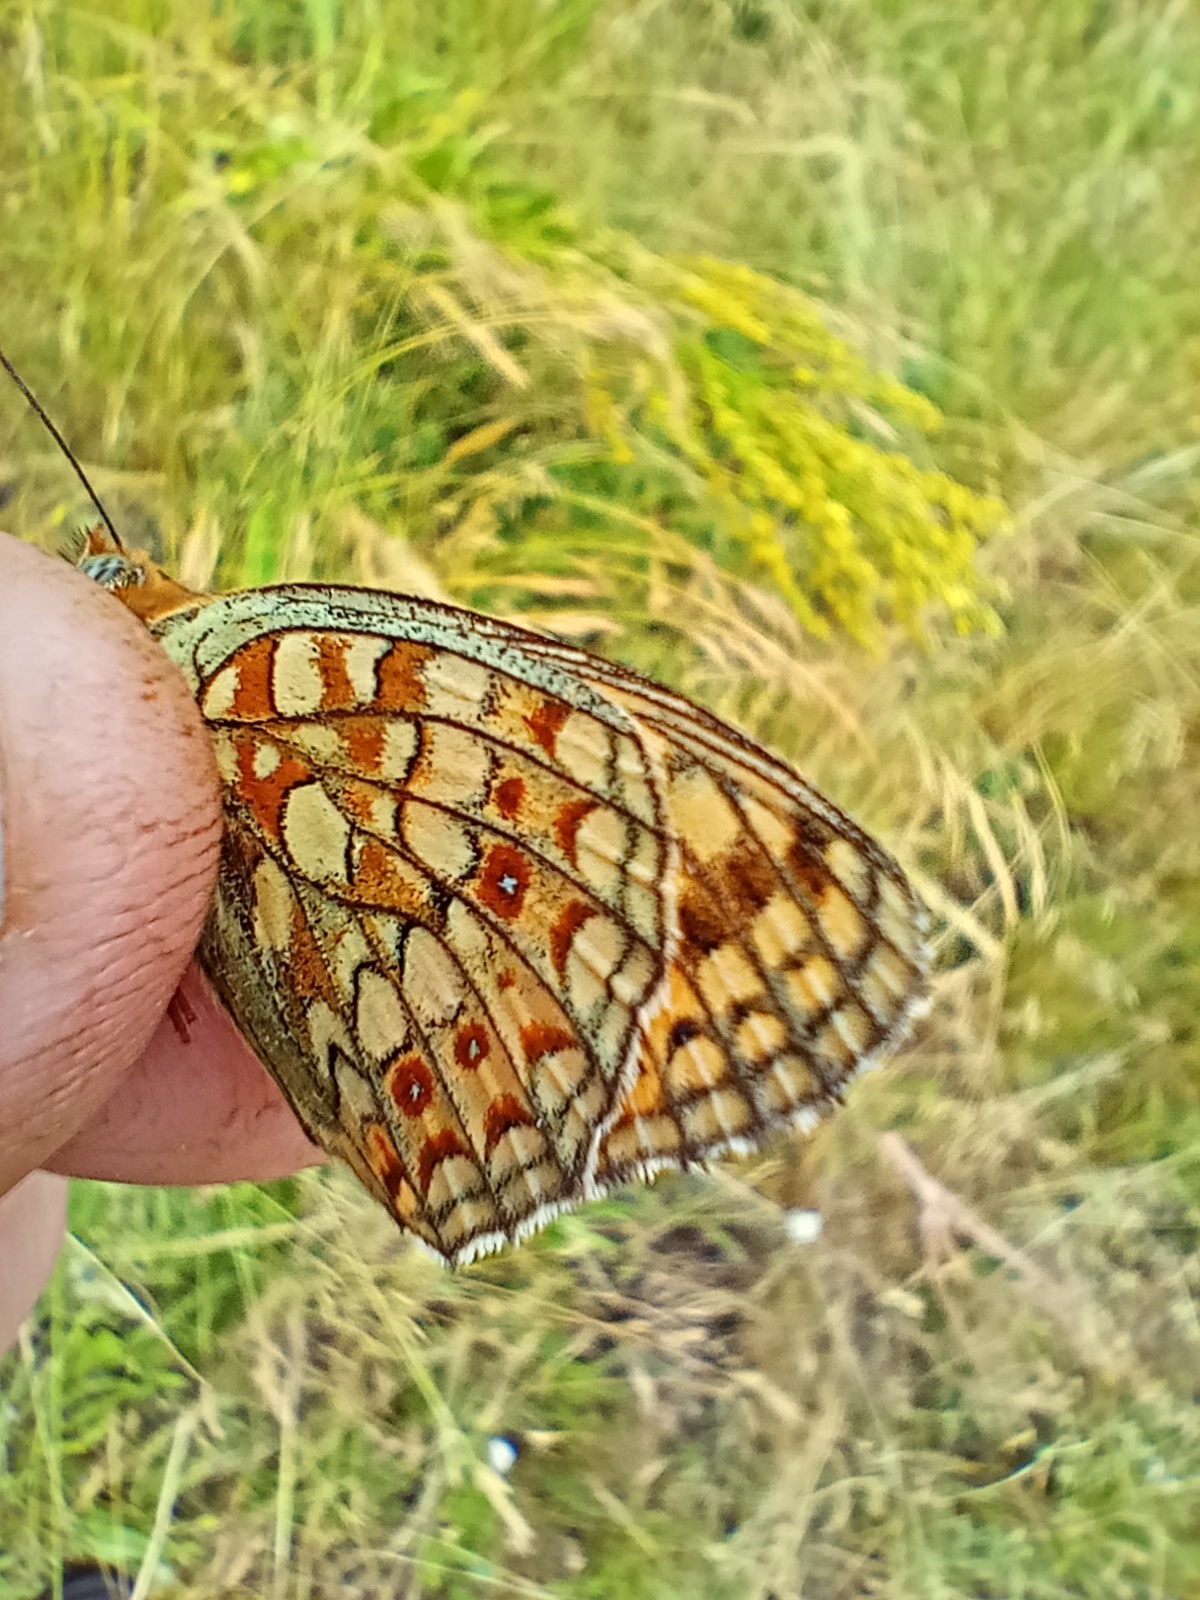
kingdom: Animalia
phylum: Arthropoda
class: Insecta
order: Lepidoptera
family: Nymphalidae
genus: Fabriciana
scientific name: Fabriciana niobe
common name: Niobe fritillary
